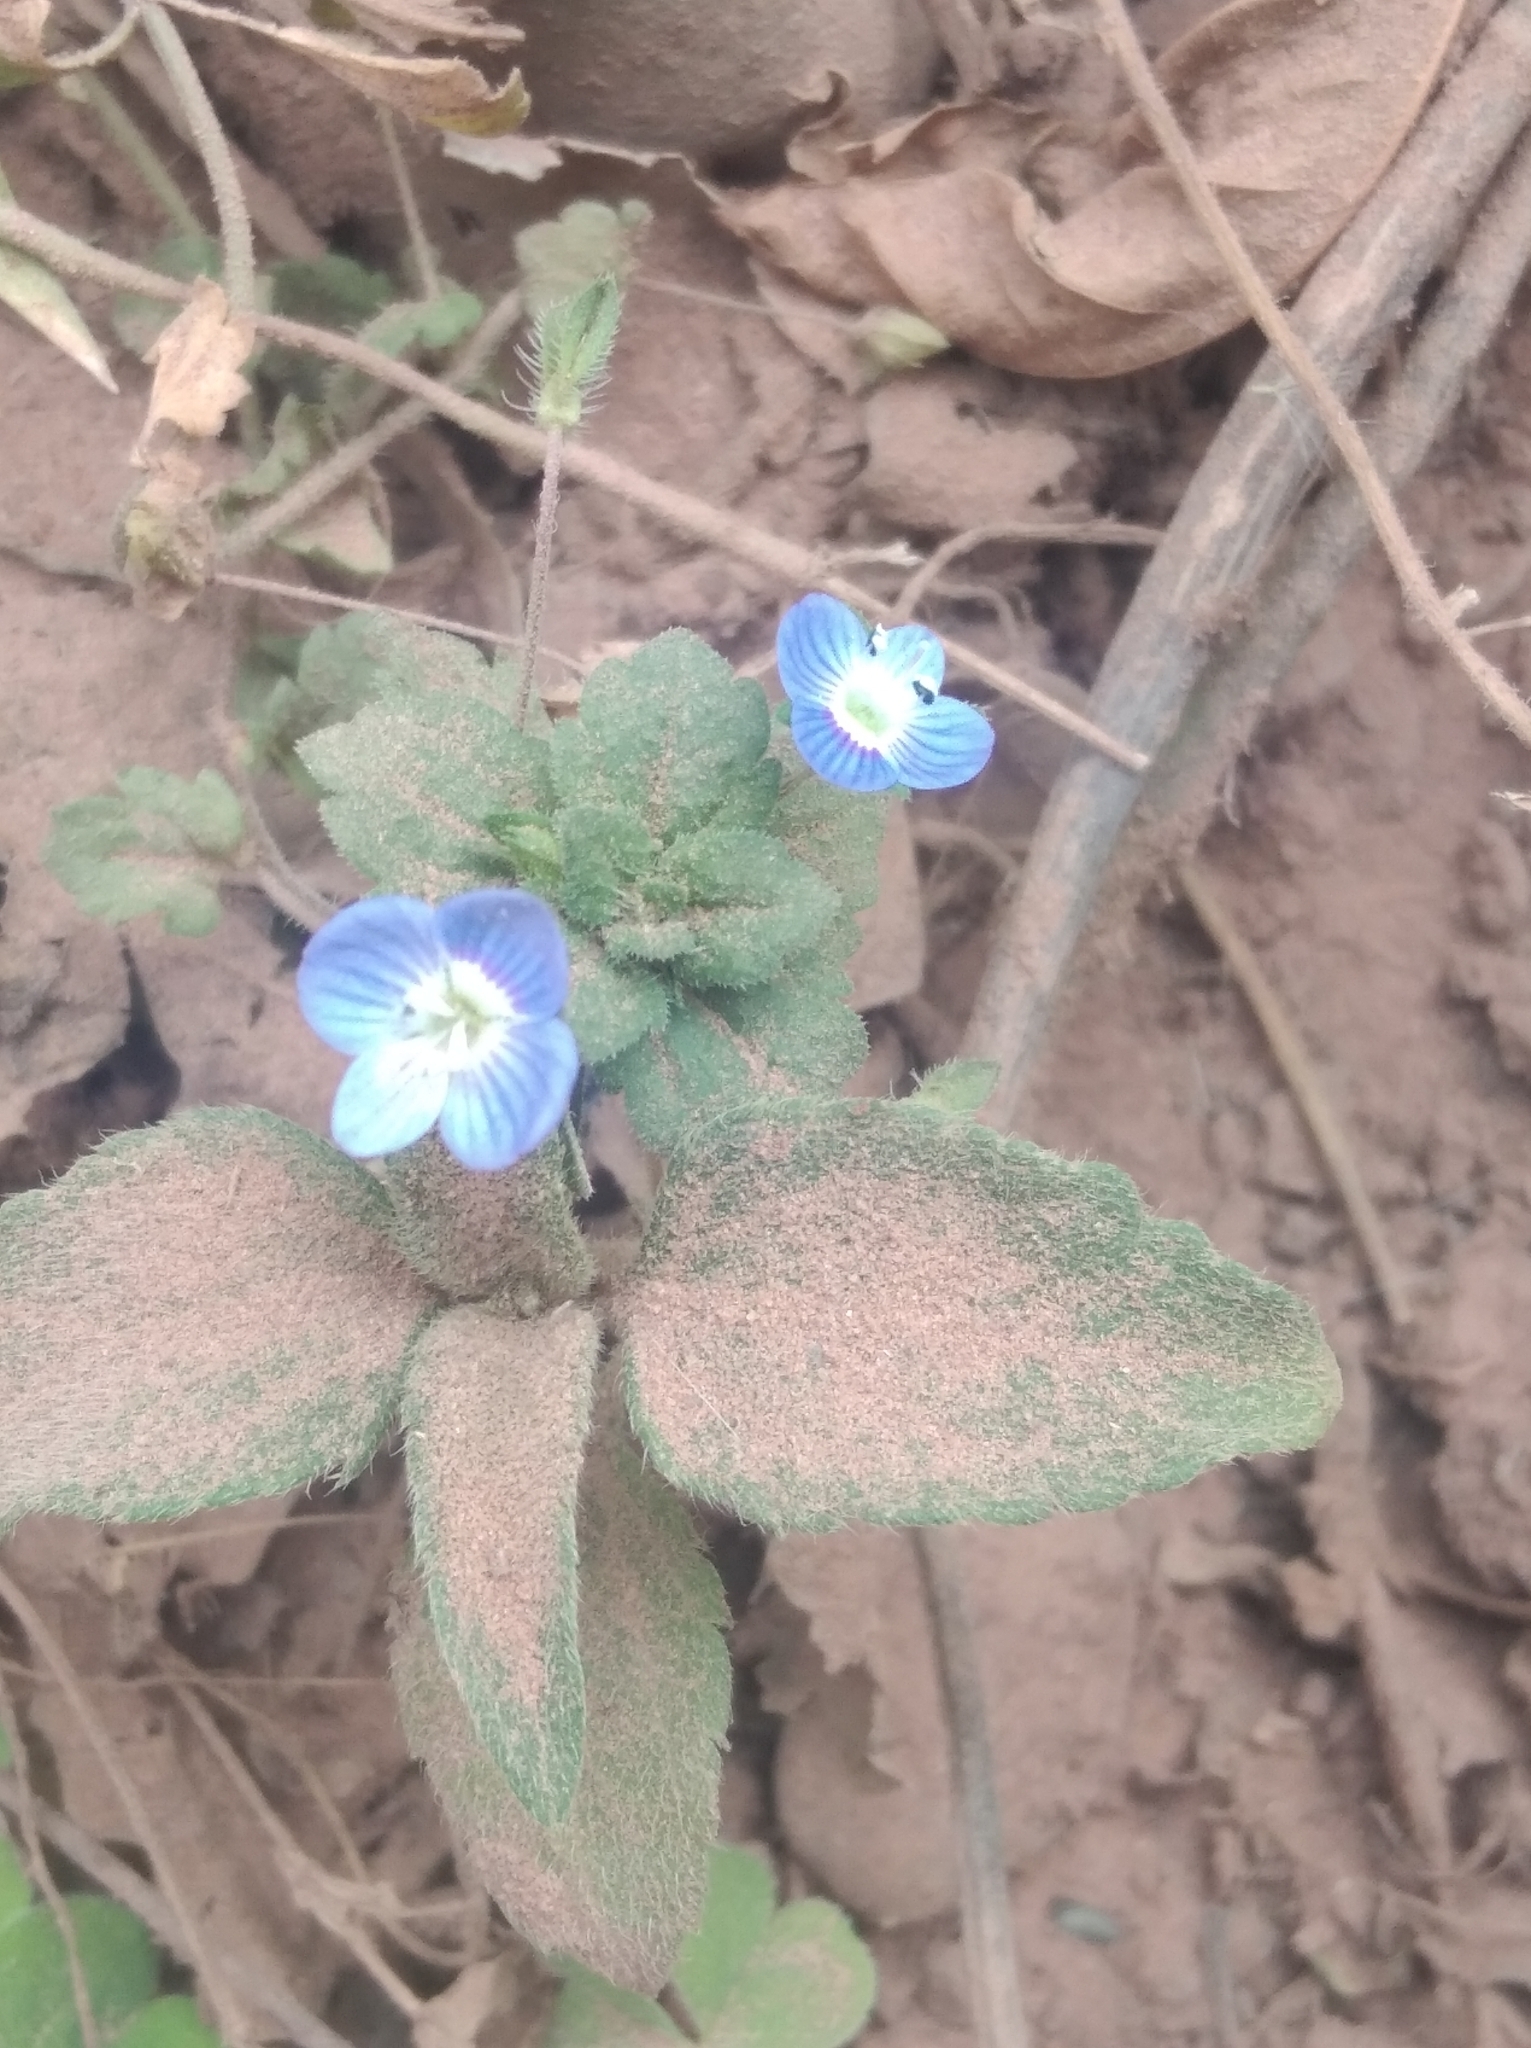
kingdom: Plantae
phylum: Tracheophyta
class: Magnoliopsida
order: Lamiales
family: Plantaginaceae
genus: Veronica
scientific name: Veronica persica
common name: Common field-speedwell
